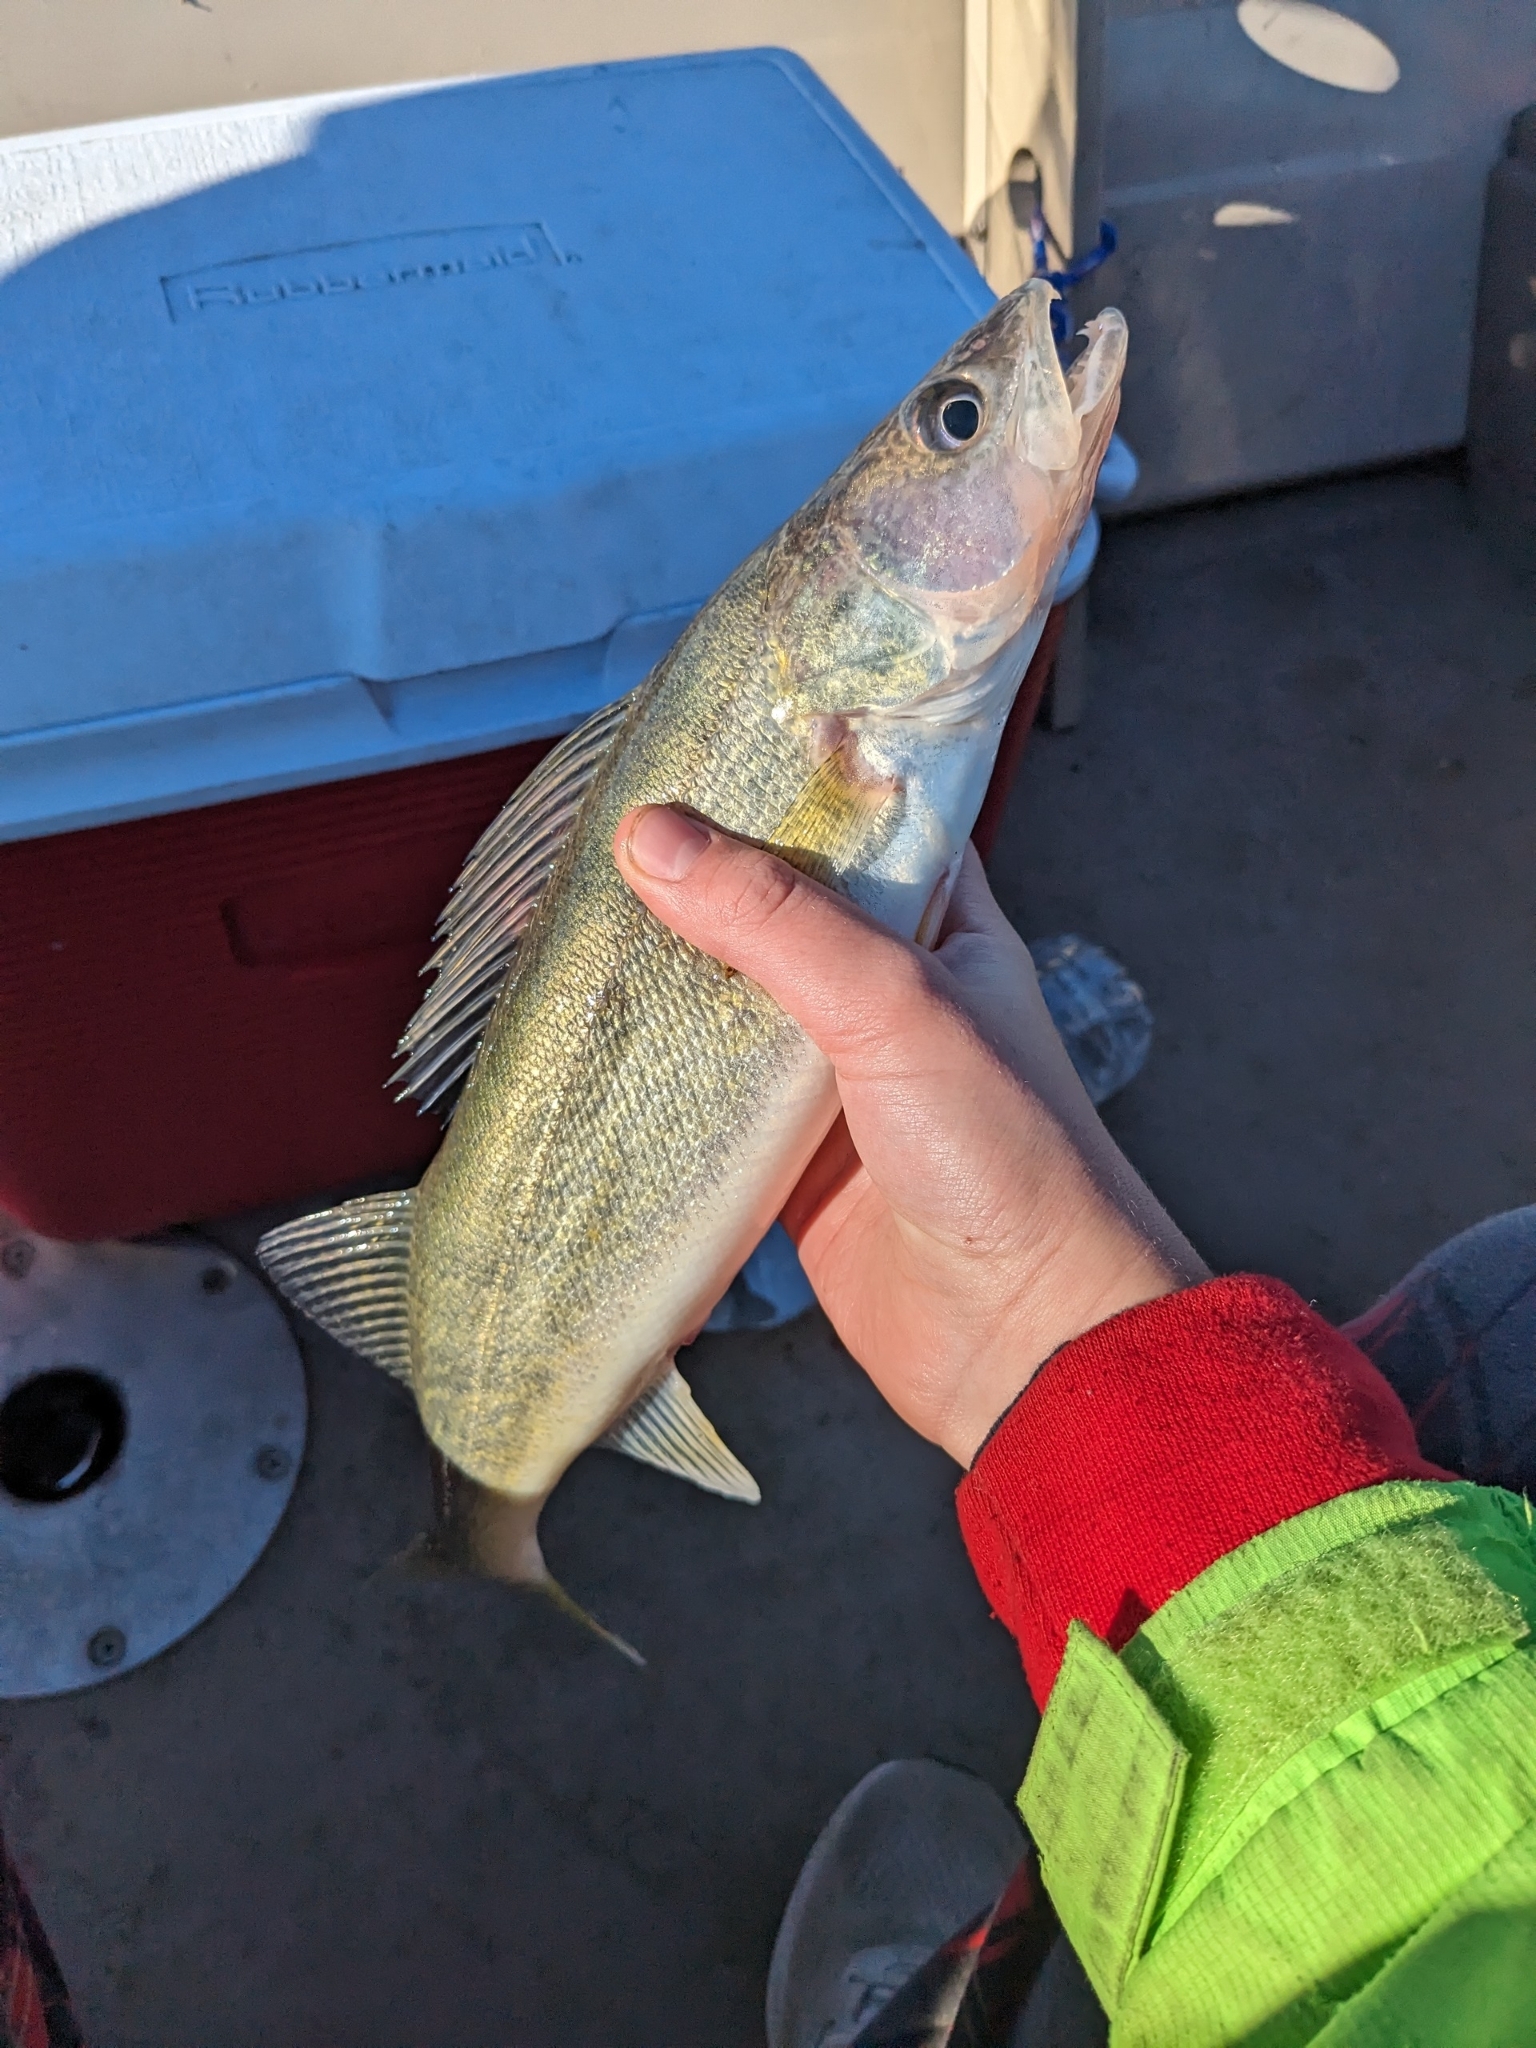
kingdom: Animalia
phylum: Chordata
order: Perciformes
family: Percidae
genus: Sander
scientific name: Sander vitreus
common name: Walleye
